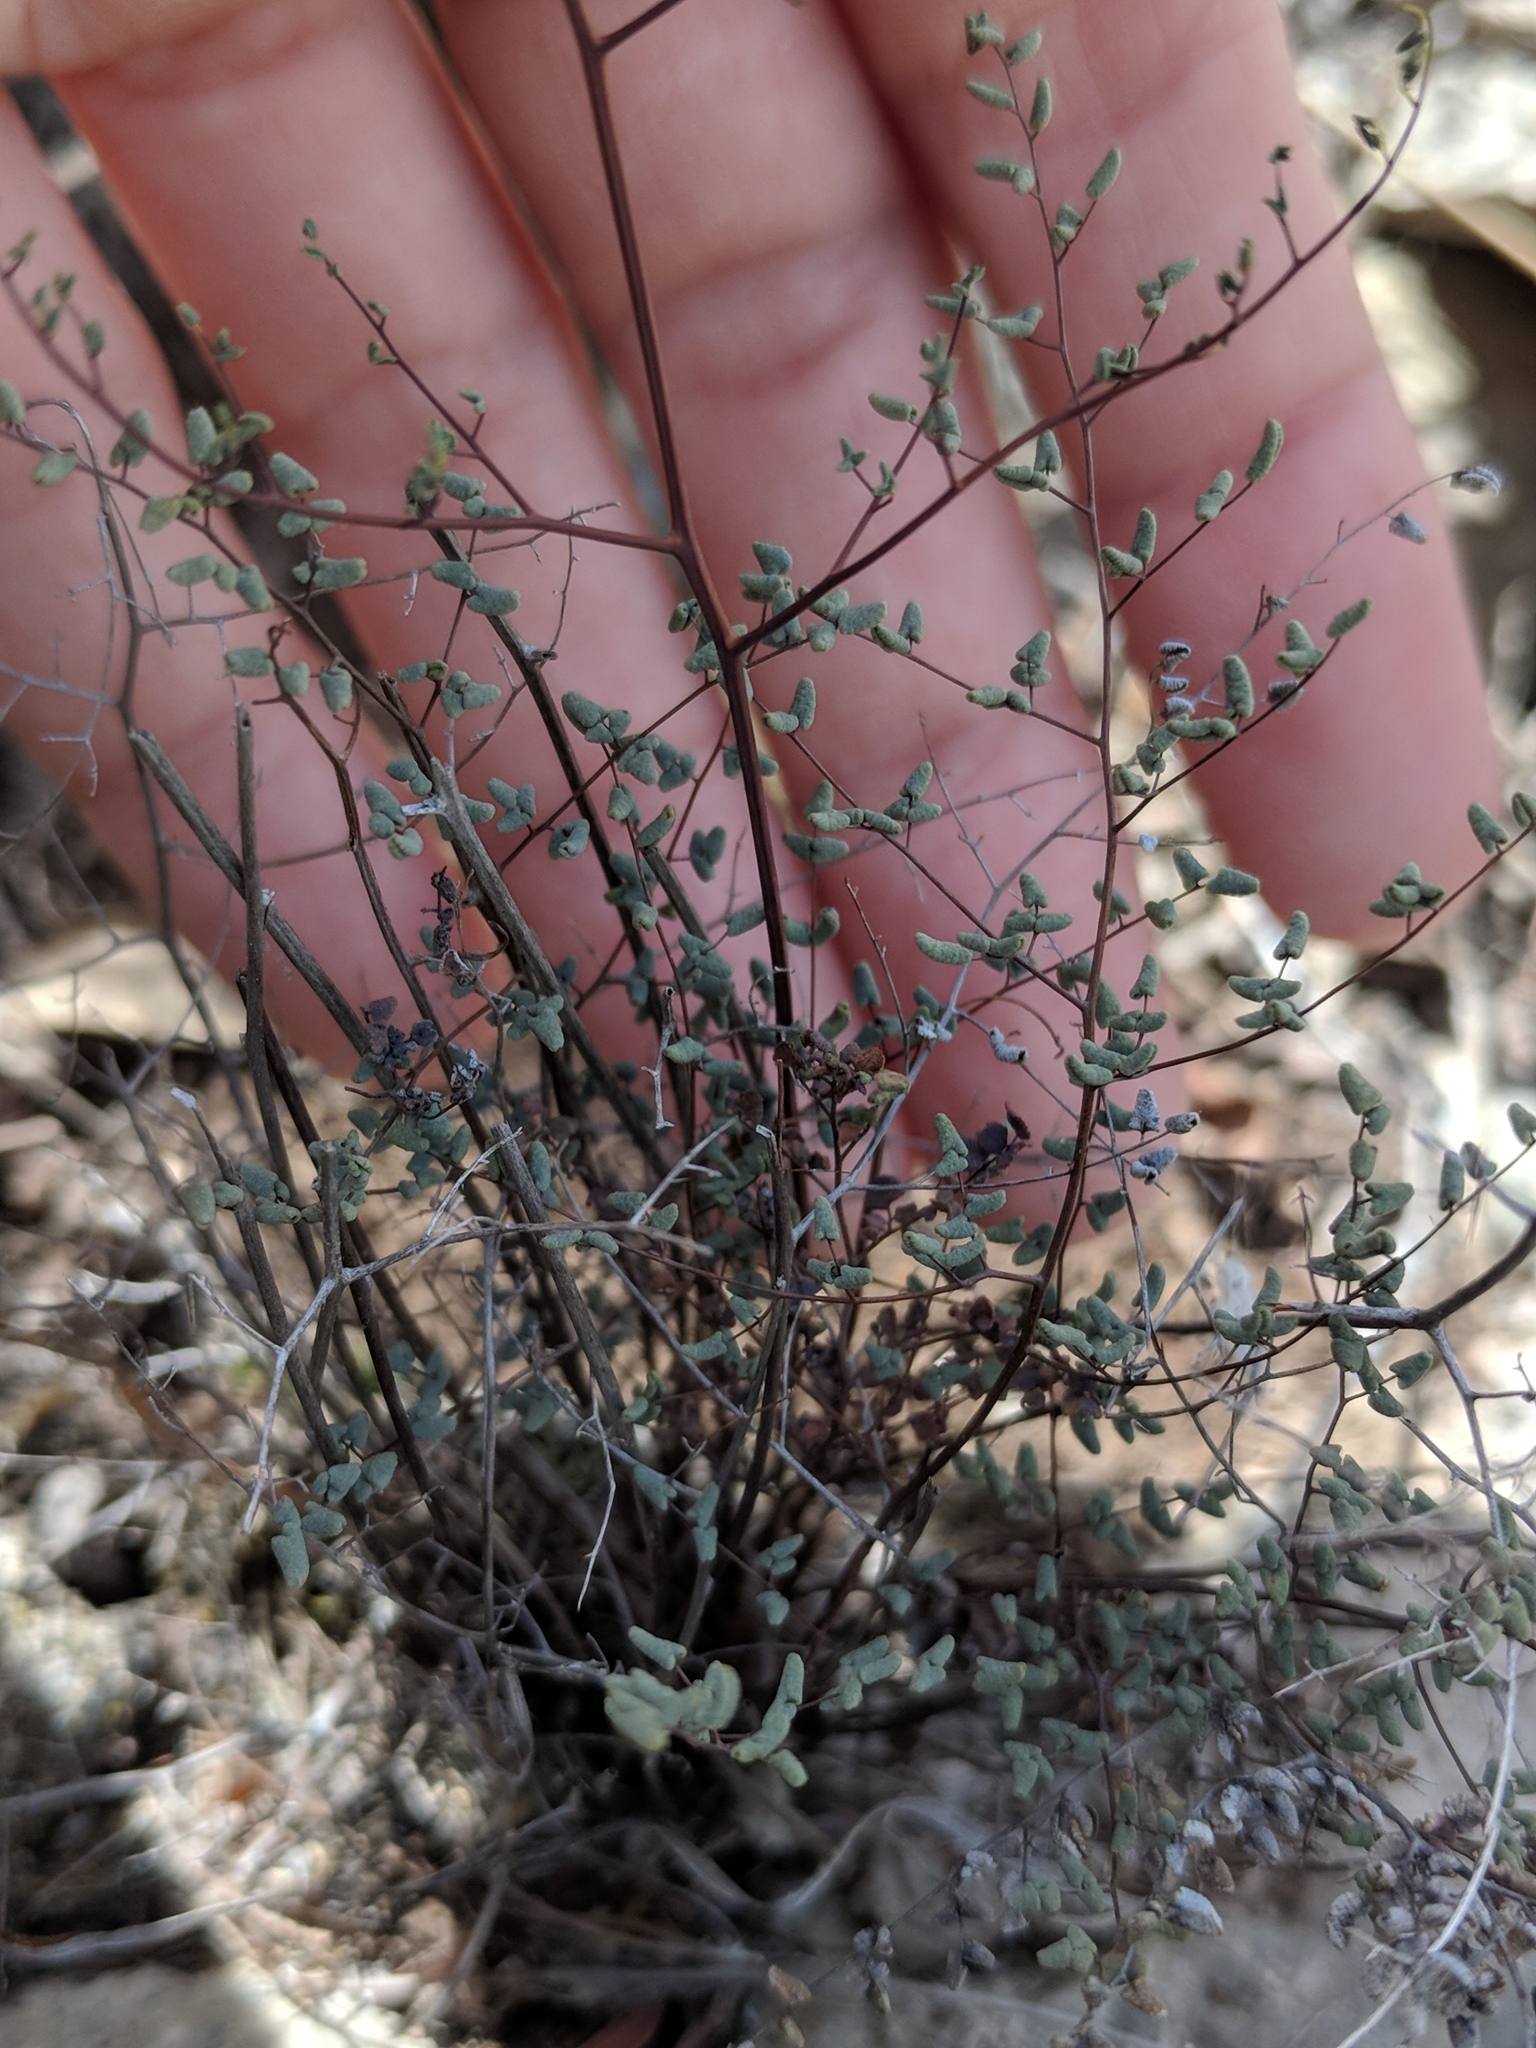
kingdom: Plantae
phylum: Tracheophyta
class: Polypodiopsida
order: Polypodiales
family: Pteridaceae
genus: Argyrochosma
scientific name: Argyrochosma microphylla
